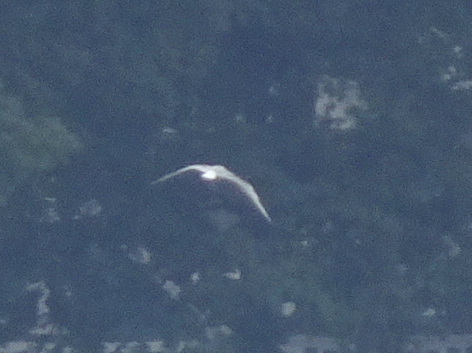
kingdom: Animalia
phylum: Chordata
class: Aves
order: Charadriiformes
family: Laridae
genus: Chroicocephalus
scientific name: Chroicocephalus philadelphia
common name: Bonaparte's gull
